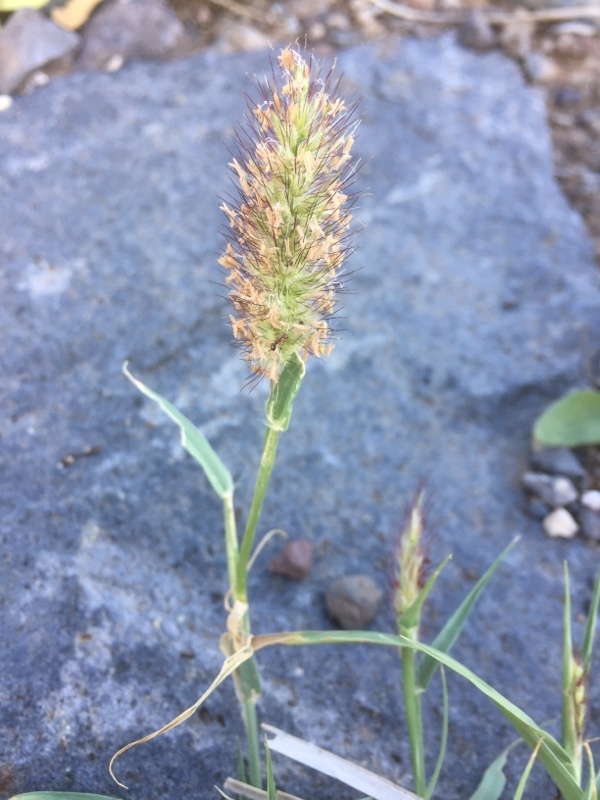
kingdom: Plantae
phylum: Tracheophyta
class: Liliopsida
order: Poales
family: Poaceae
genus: Cenchrus
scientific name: Cenchrus ciliaris
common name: Buffelgrass
